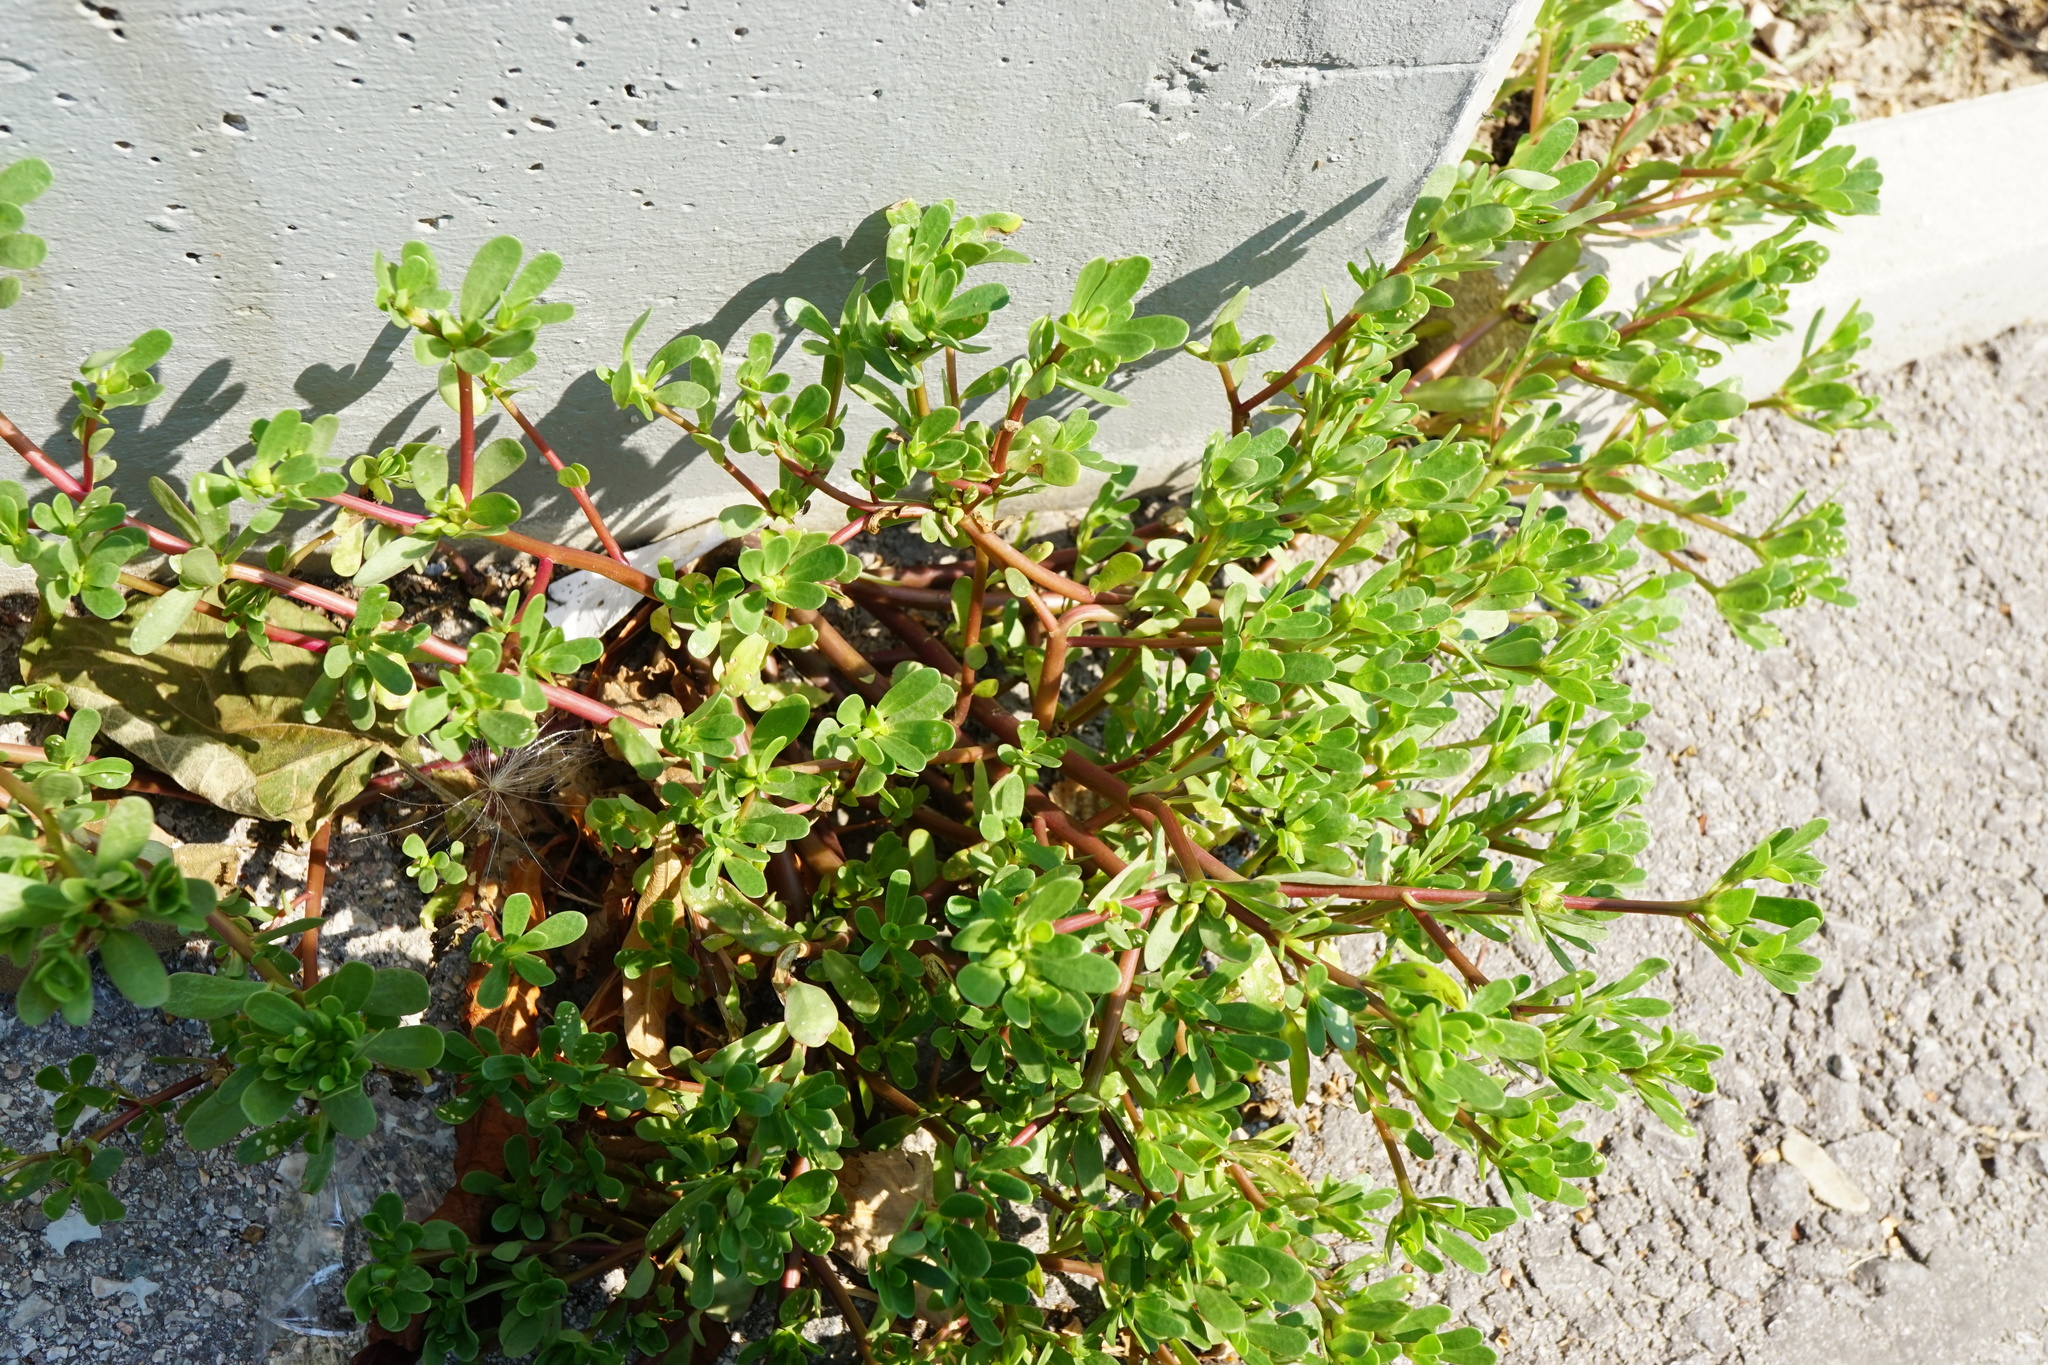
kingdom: Plantae
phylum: Tracheophyta
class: Magnoliopsida
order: Caryophyllales
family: Portulacaceae
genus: Portulaca
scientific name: Portulaca oleracea
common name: Common purslane
